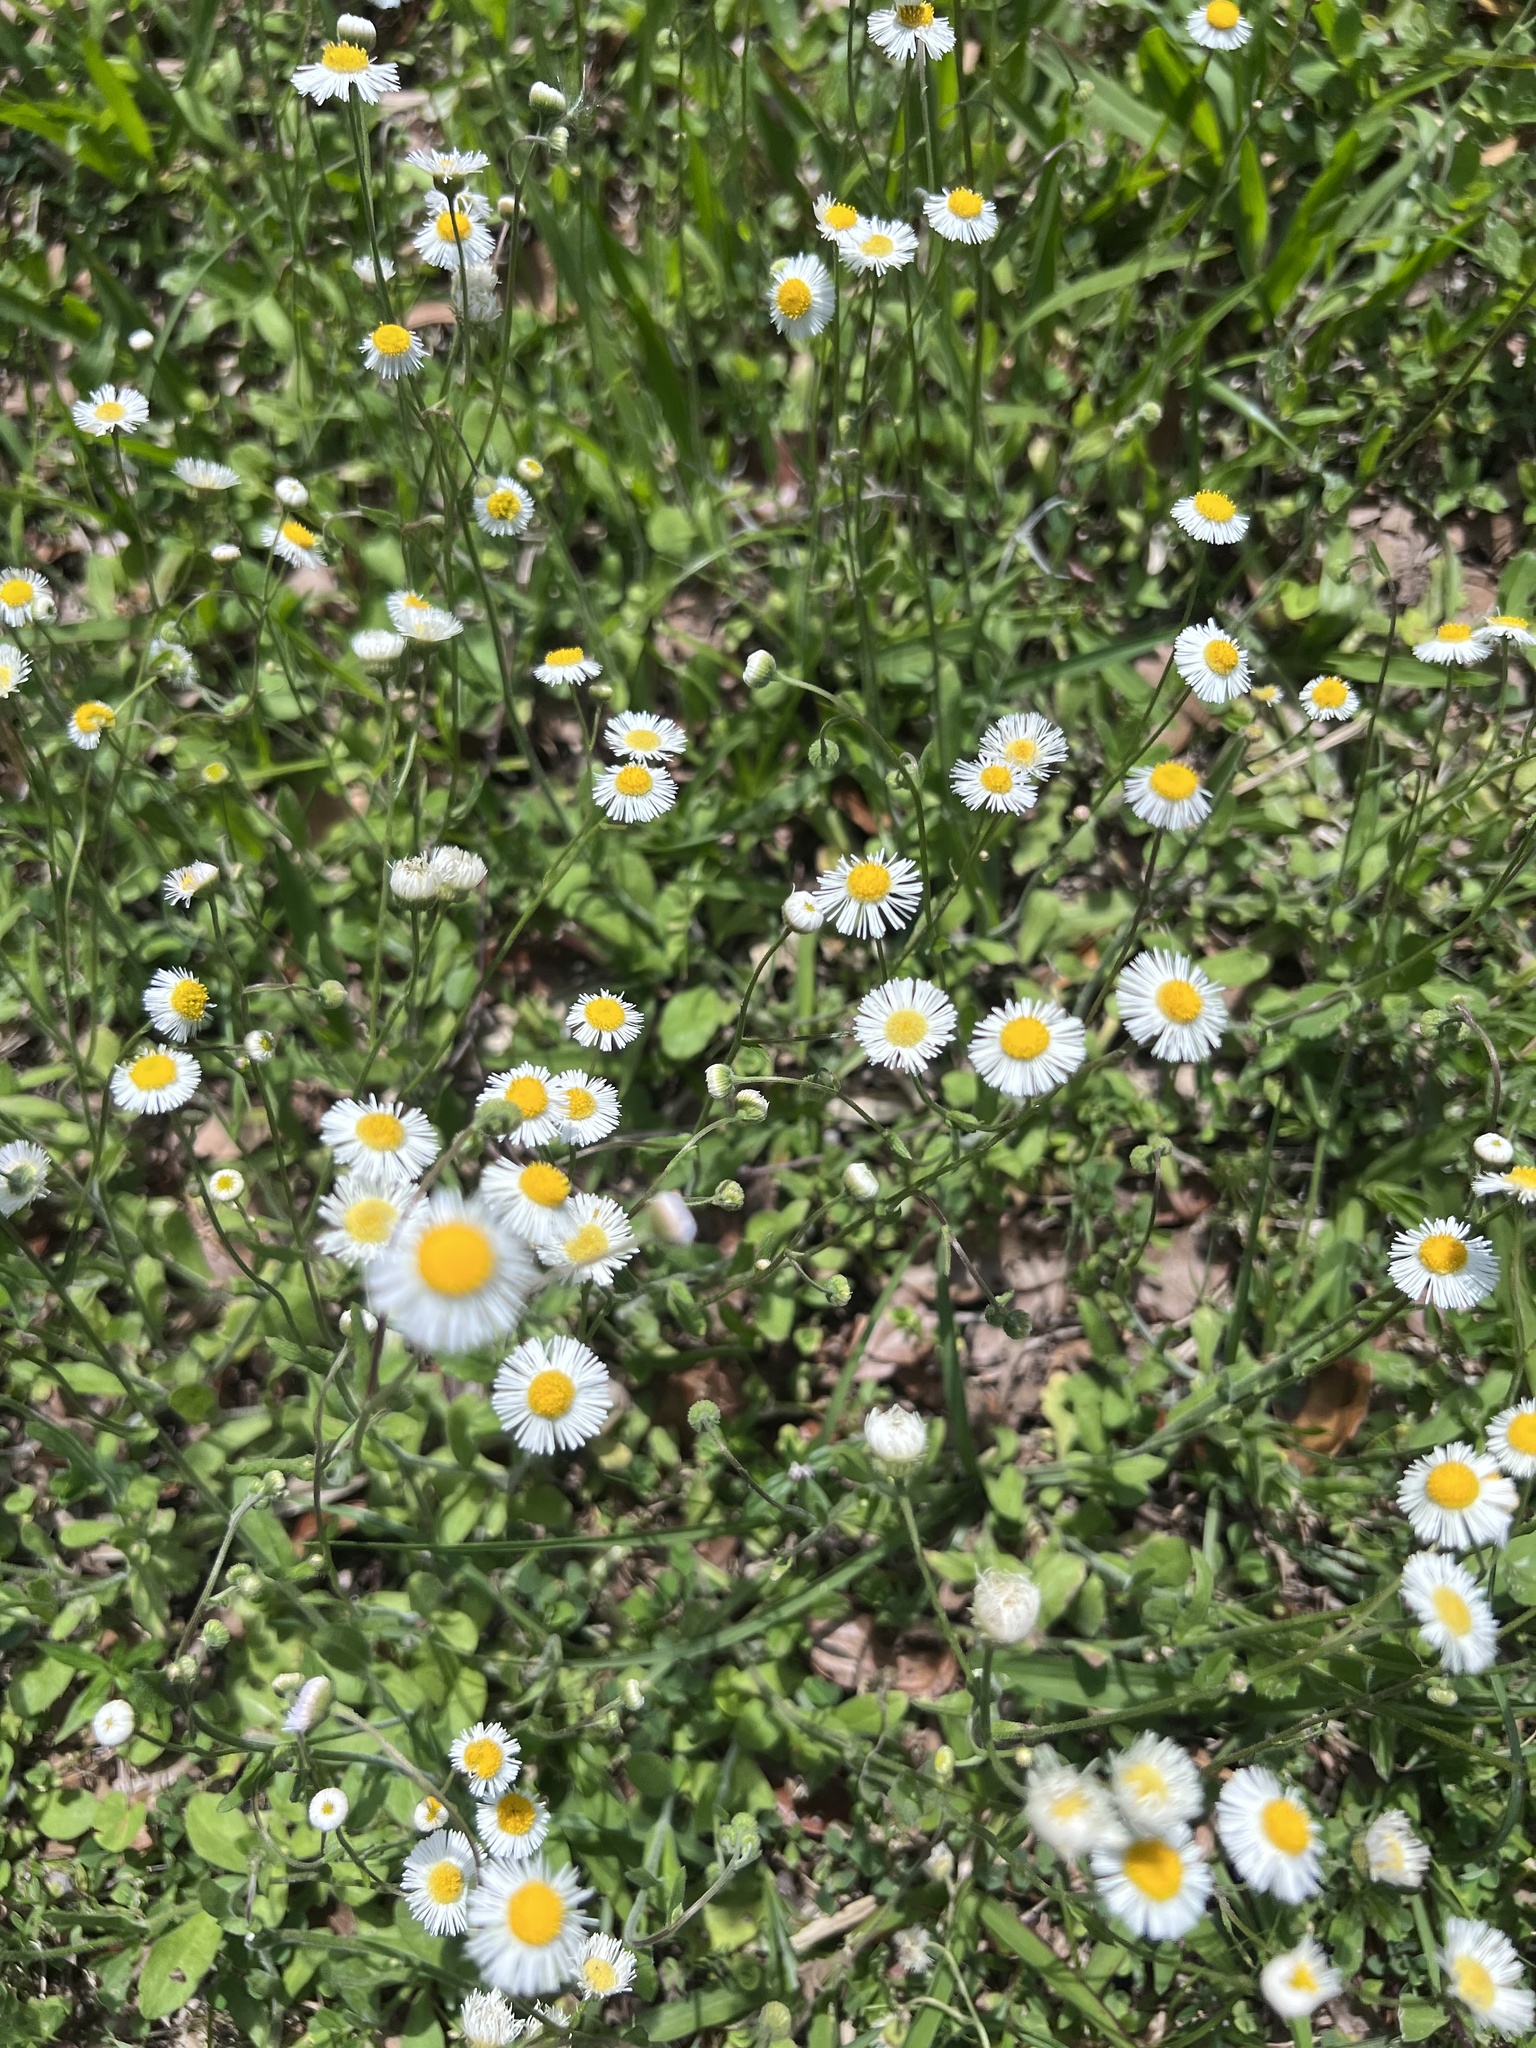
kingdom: Plantae
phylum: Tracheophyta
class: Magnoliopsida
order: Asterales
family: Asteraceae
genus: Erigeron
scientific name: Erigeron quercifolius
